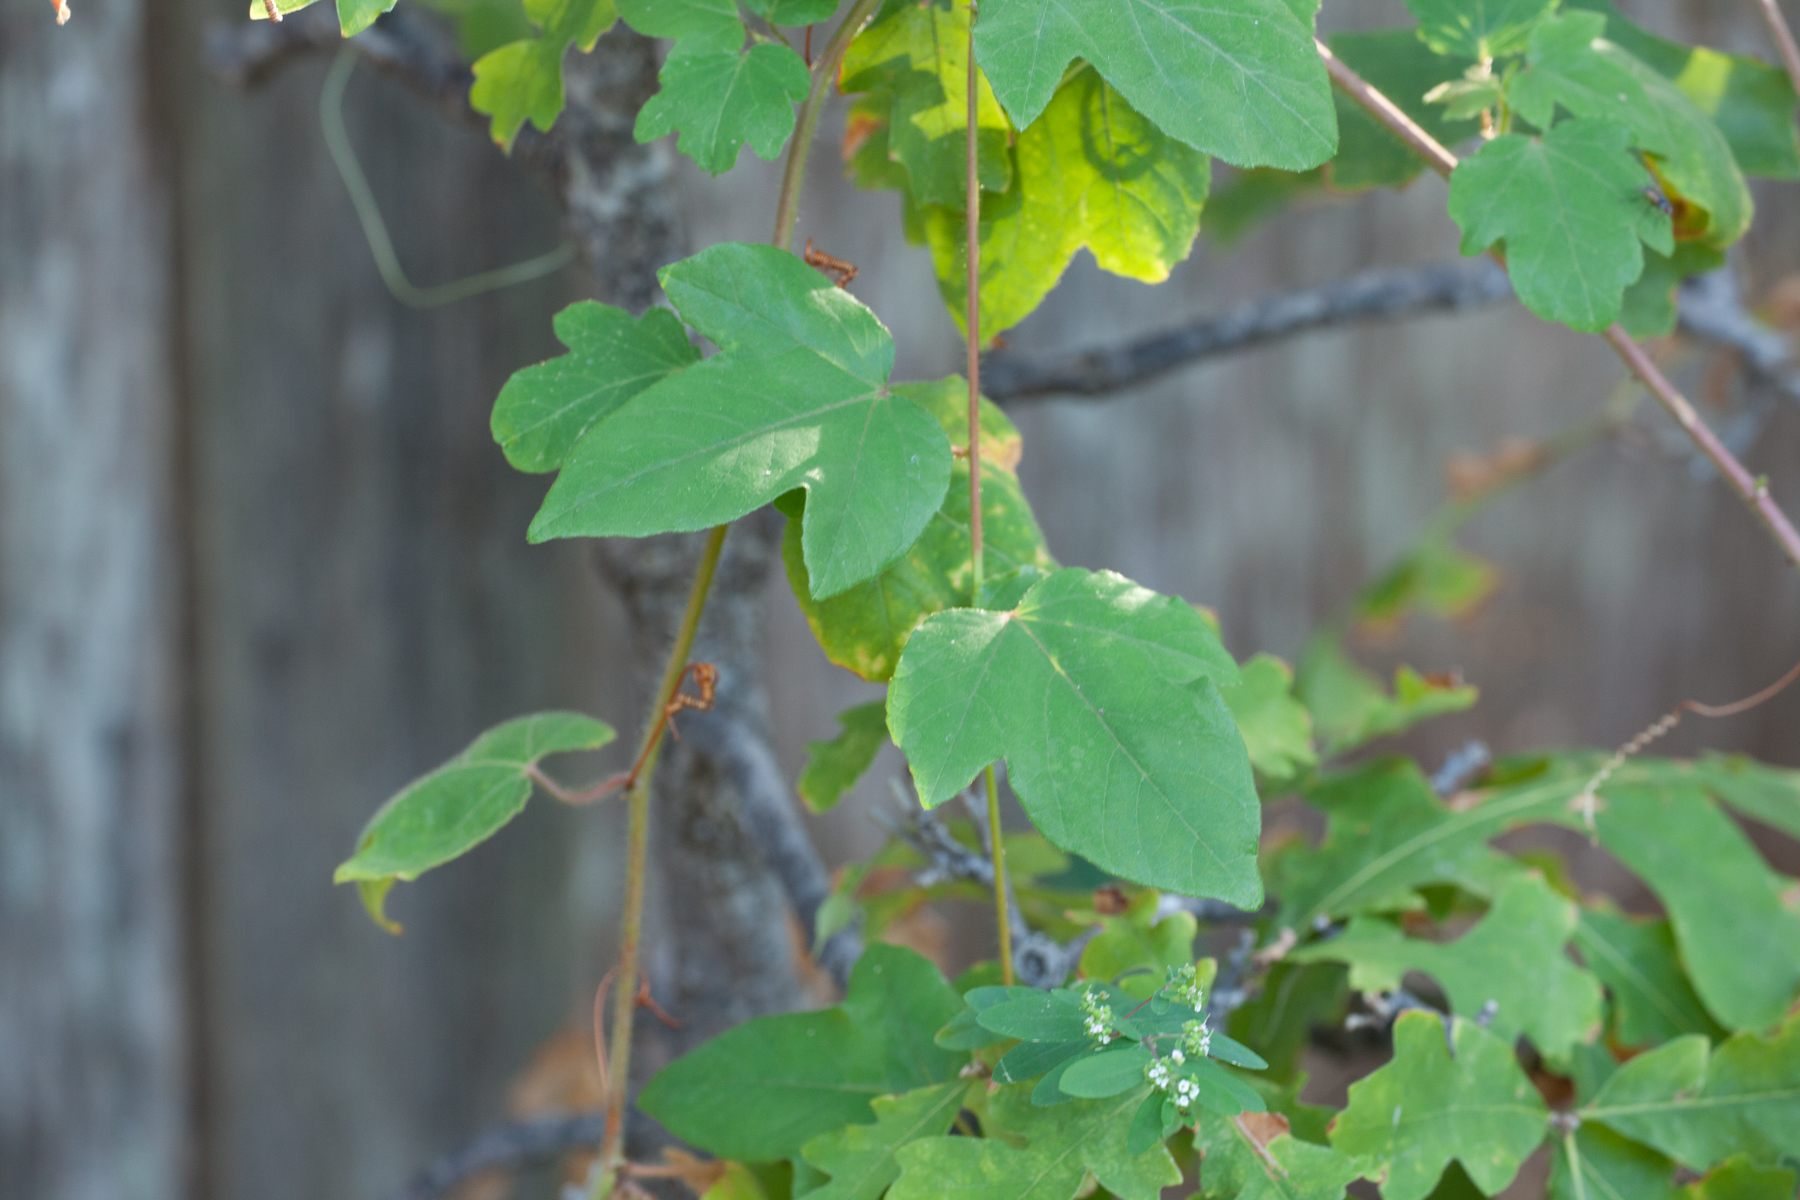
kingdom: Plantae
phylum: Tracheophyta
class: Magnoliopsida
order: Malpighiales
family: Passifloraceae
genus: Passiflora
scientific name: Passiflora foetida
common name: Fetid passionflower
